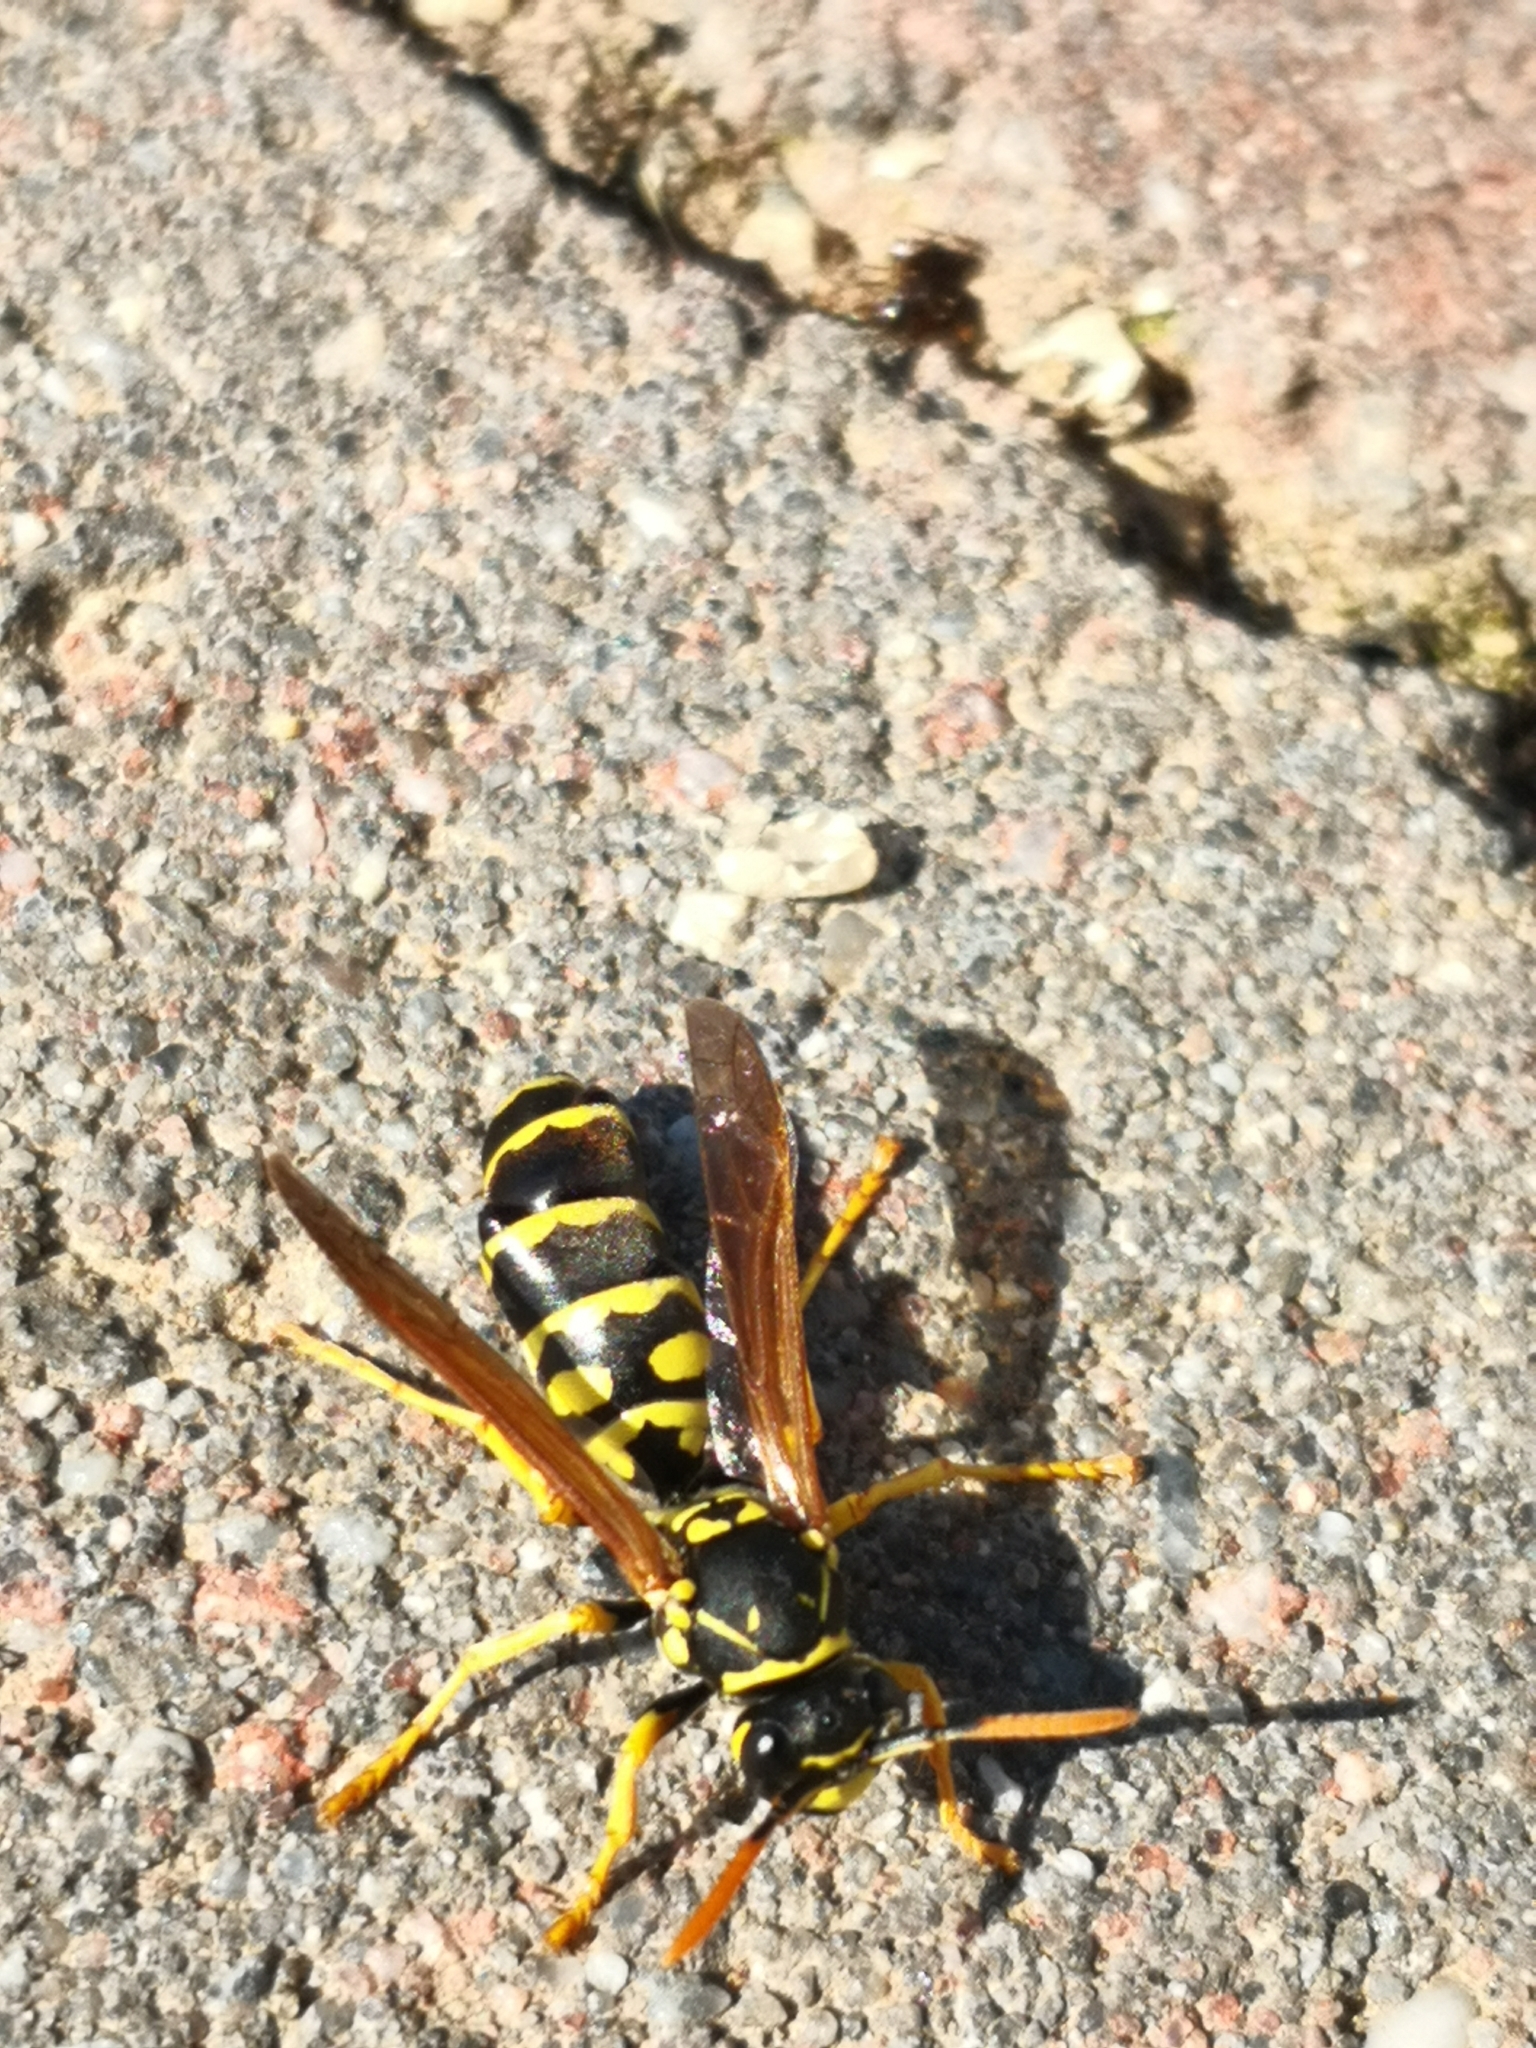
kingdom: Animalia
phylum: Arthropoda
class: Insecta
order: Hymenoptera
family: Eumenidae
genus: Polistes
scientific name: Polistes dominula
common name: Paper wasp
